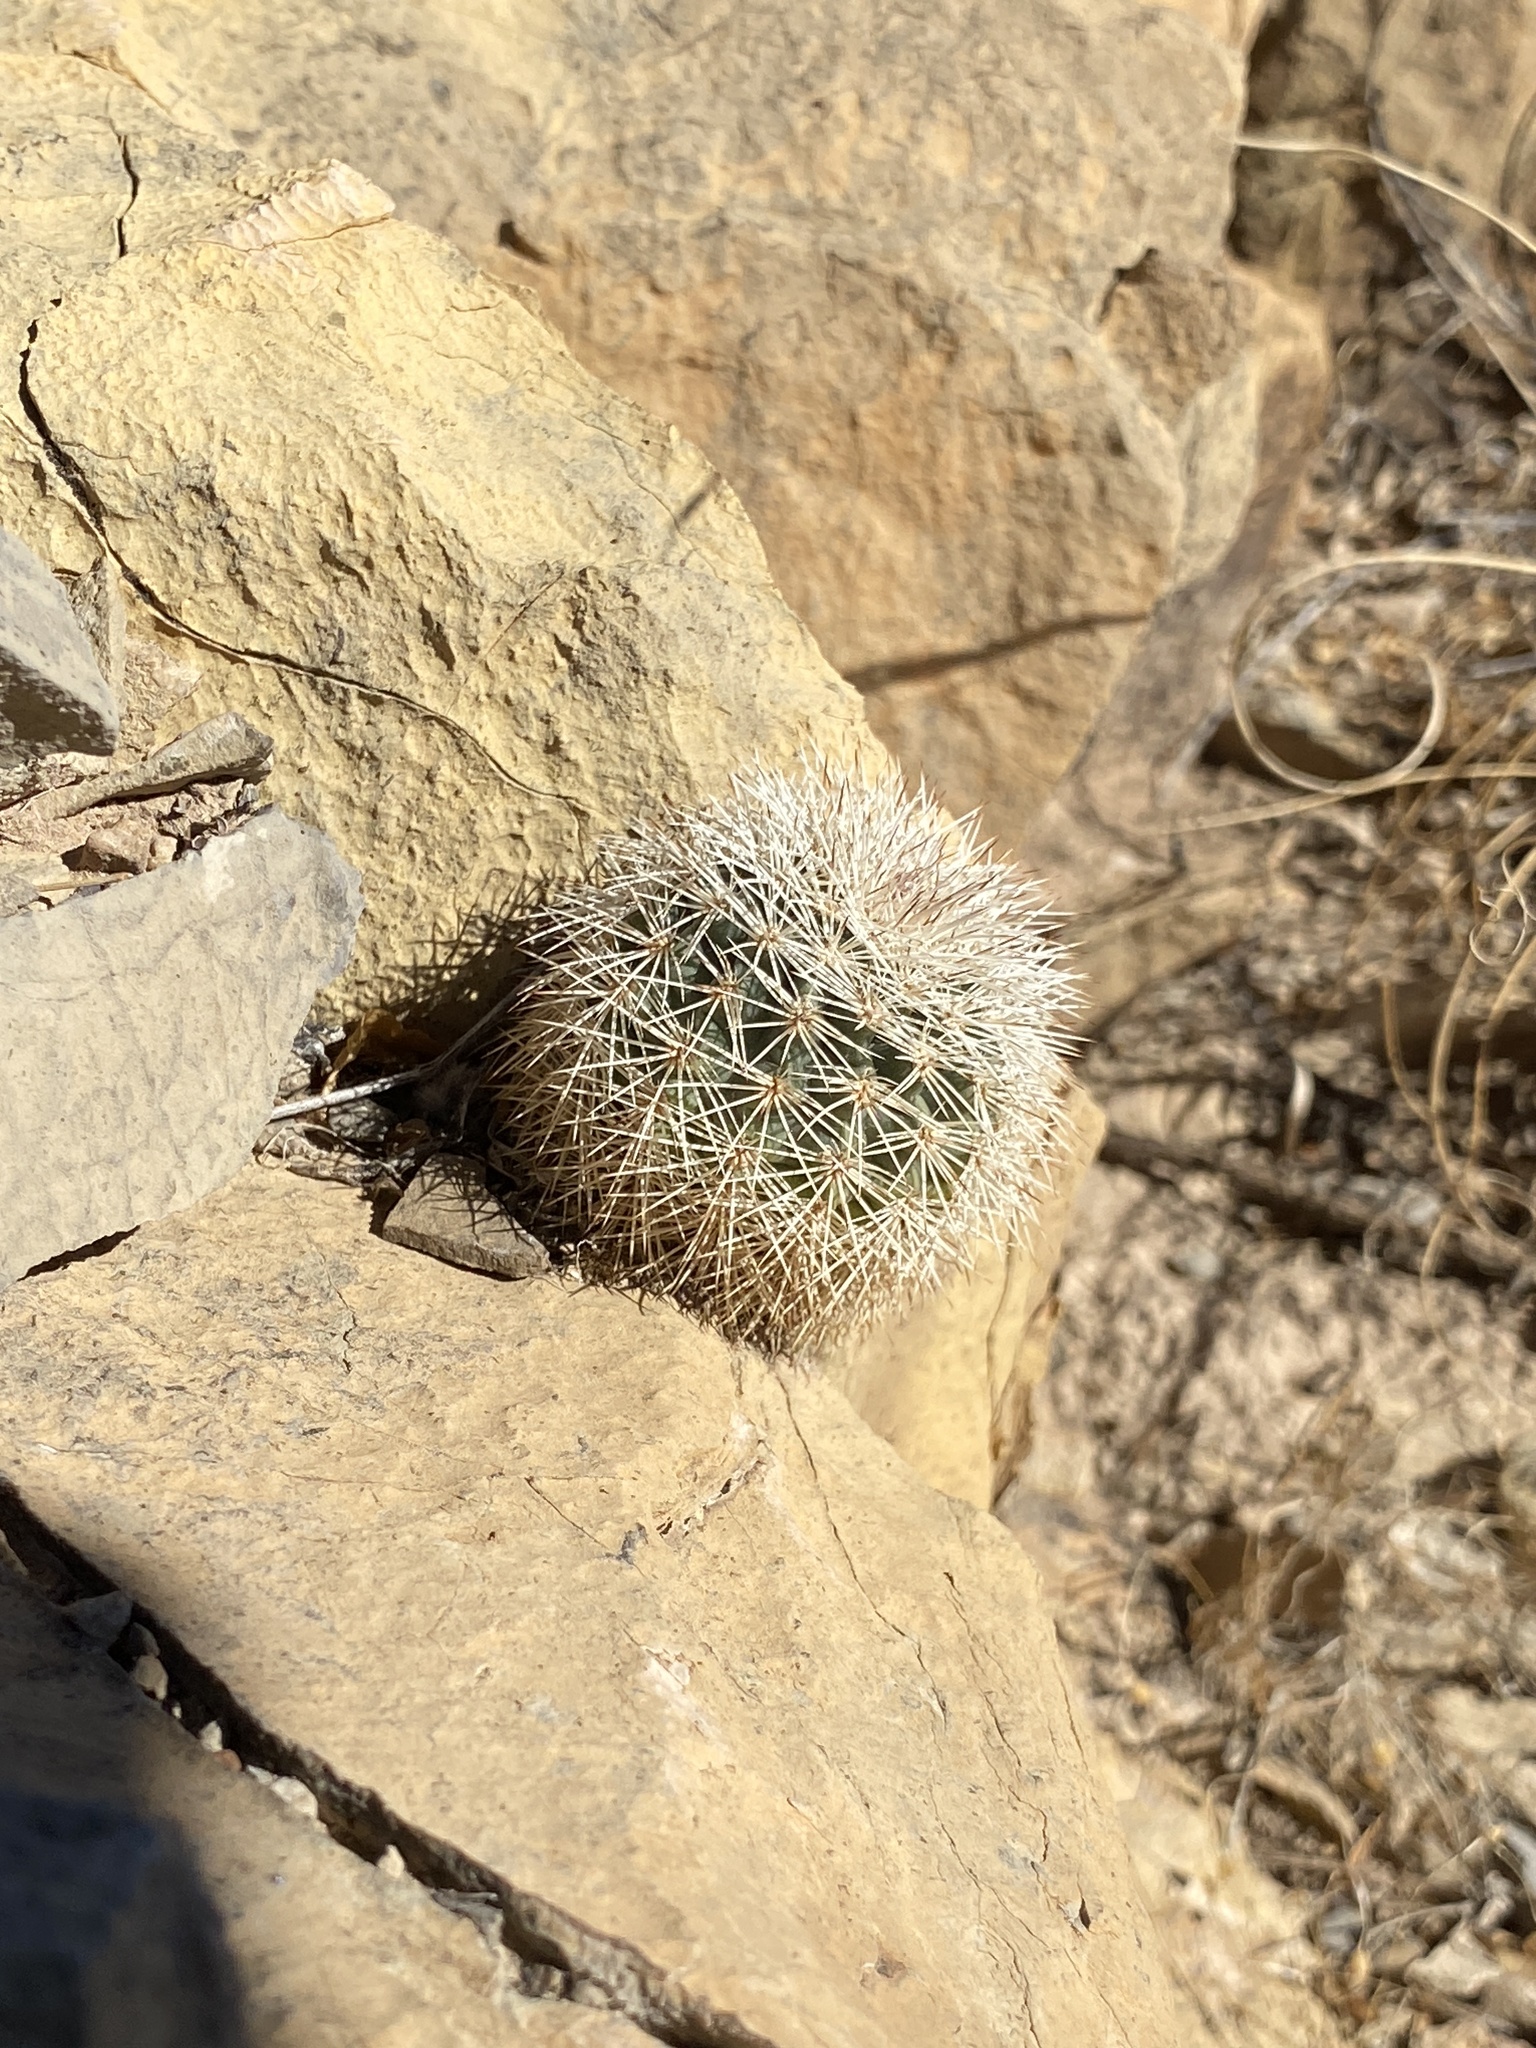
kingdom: Plantae
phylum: Tracheophyta
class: Magnoliopsida
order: Caryophyllales
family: Cactaceae
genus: Echinocereus
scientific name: Echinocereus dasyacanthus
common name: Spiny hedgehog cactus
